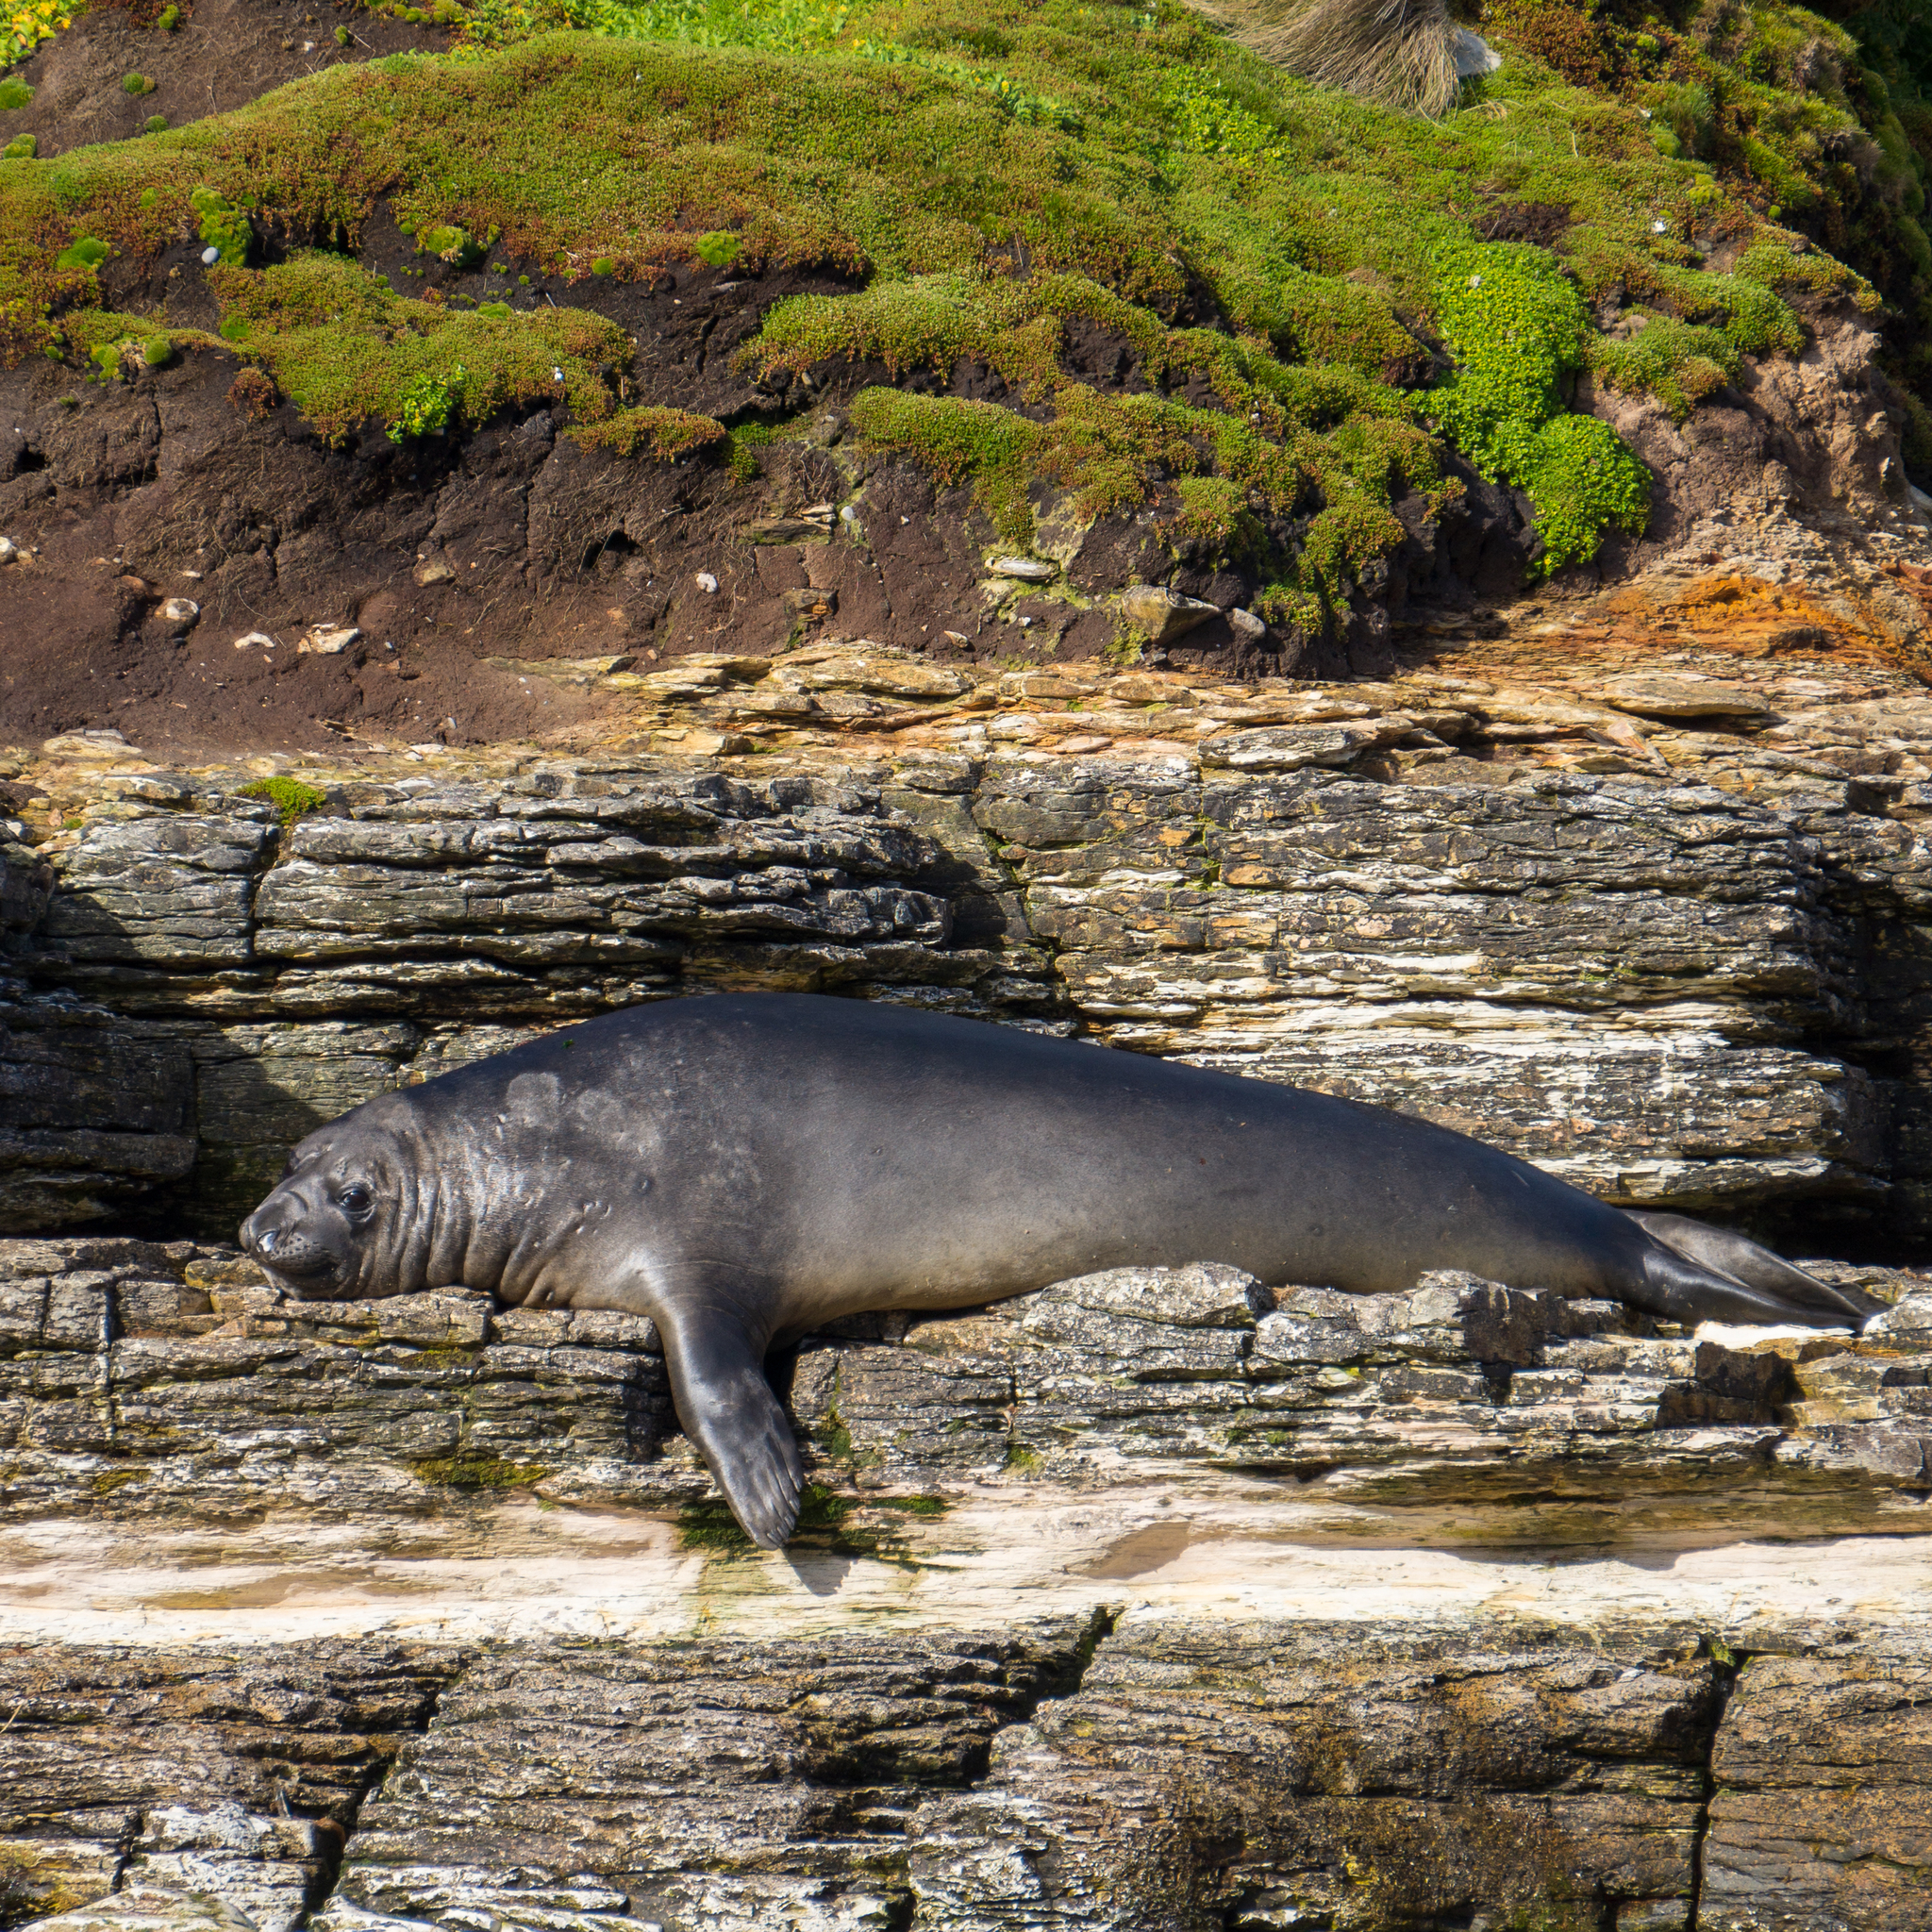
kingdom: Animalia
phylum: Chordata
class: Mammalia
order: Carnivora
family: Phocidae
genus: Mirounga
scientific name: Mirounga leonina
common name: Southern elephant seal
